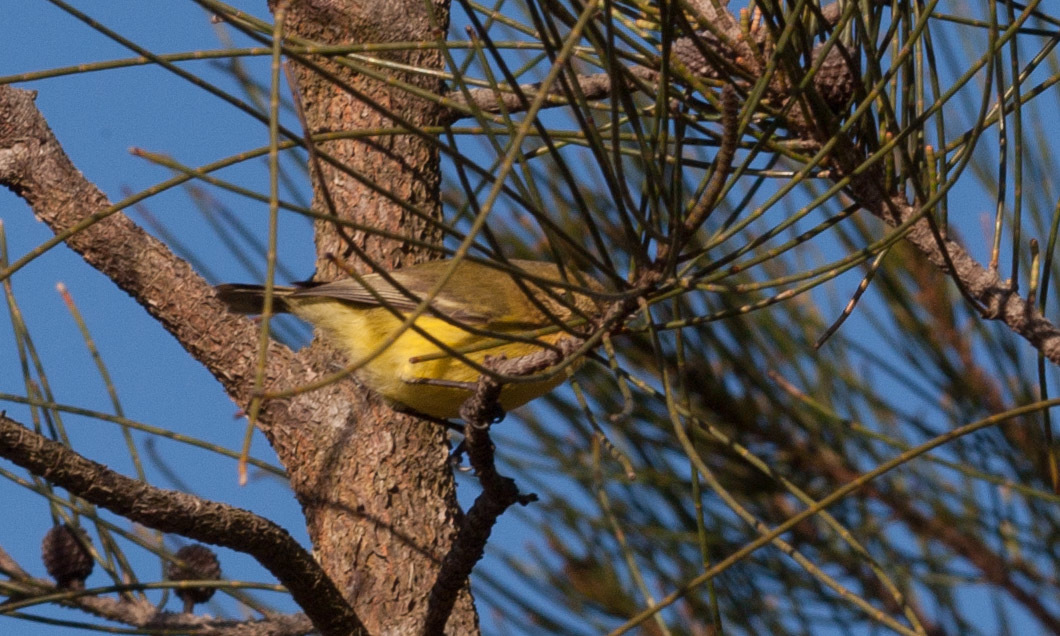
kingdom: Animalia
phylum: Chordata
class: Aves
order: Passeriformes
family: Acanthizidae
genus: Acanthiza
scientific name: Acanthiza nana
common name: Yellow thornbill
